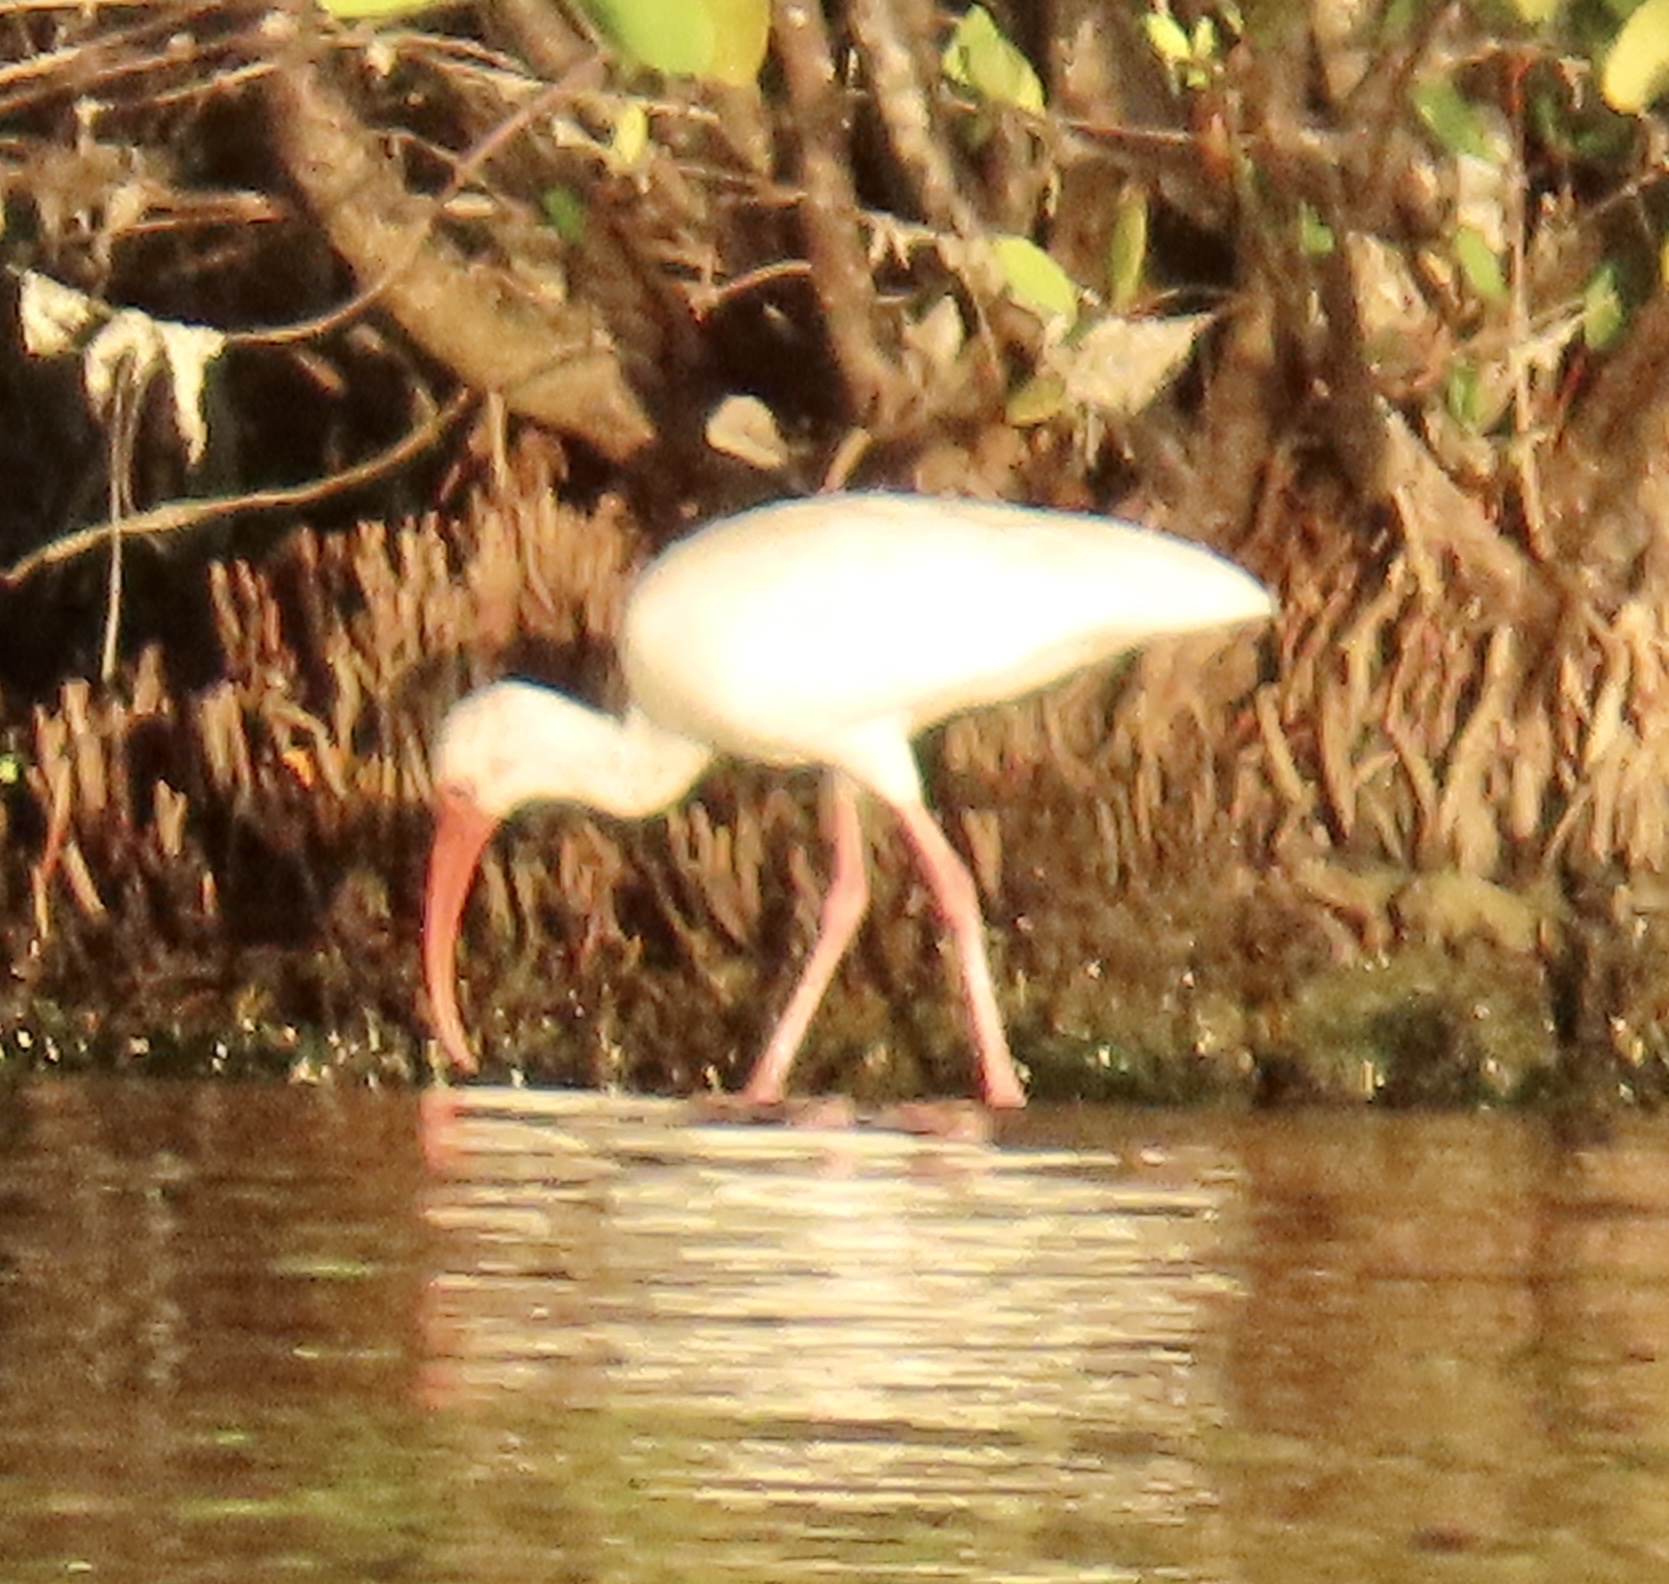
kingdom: Animalia
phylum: Chordata
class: Aves
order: Pelecaniformes
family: Threskiornithidae
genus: Eudocimus
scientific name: Eudocimus albus
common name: White ibis
